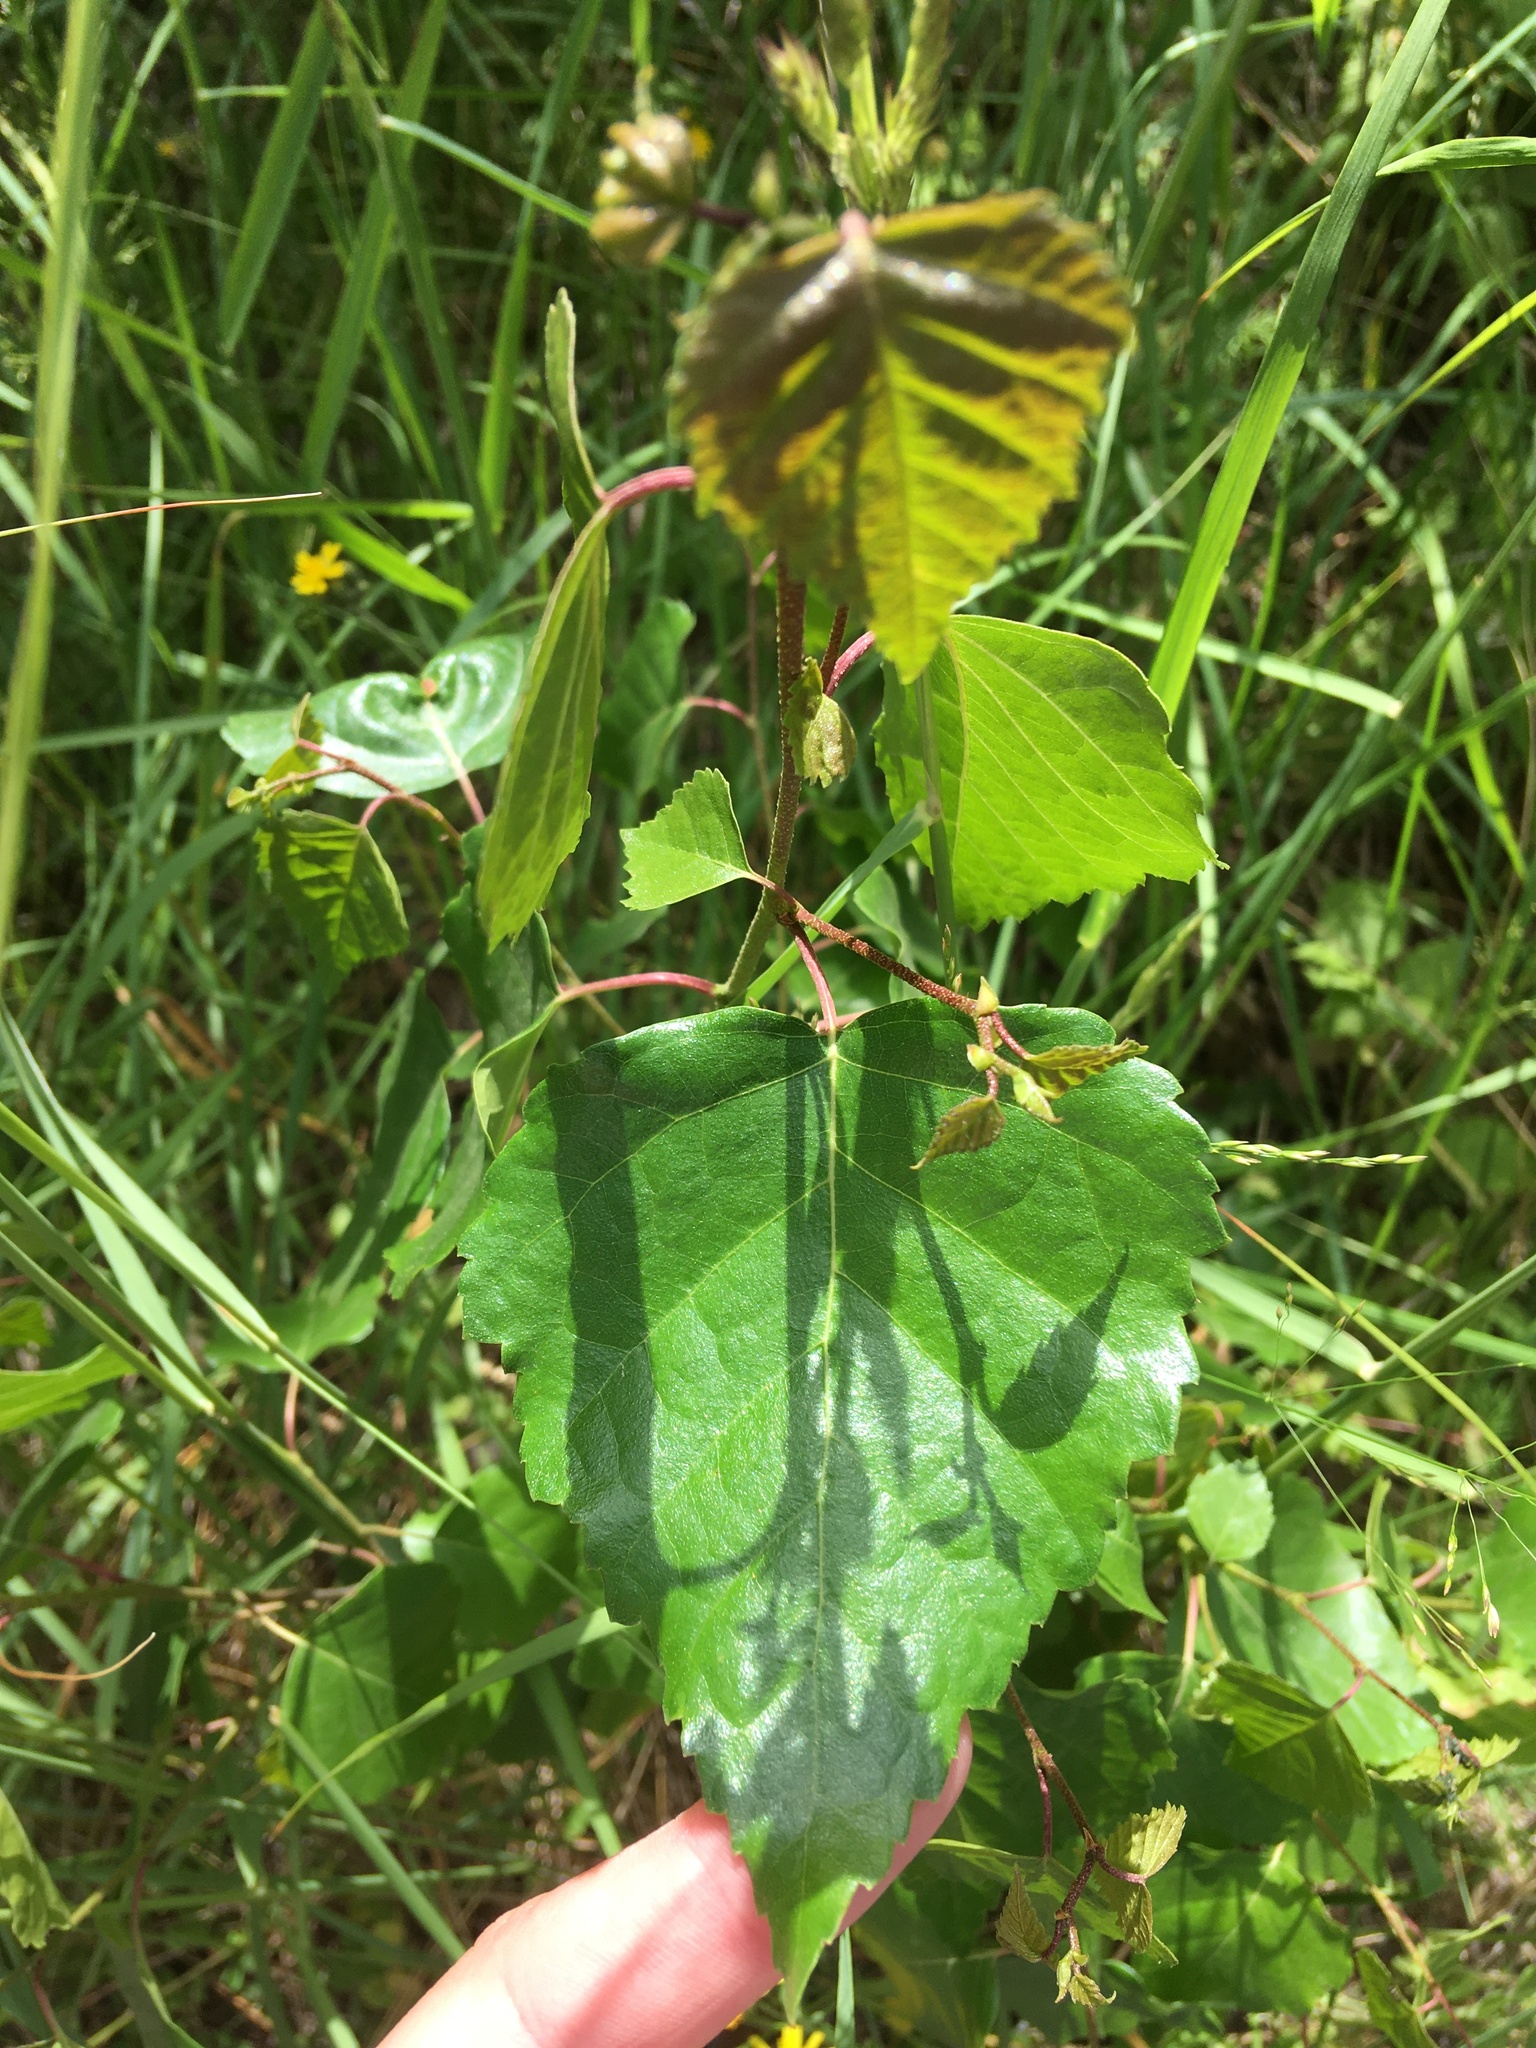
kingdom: Plantae
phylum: Tracheophyta
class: Magnoliopsida
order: Fagales
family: Betulaceae
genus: Betula
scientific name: Betula pendula
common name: Silver birch
